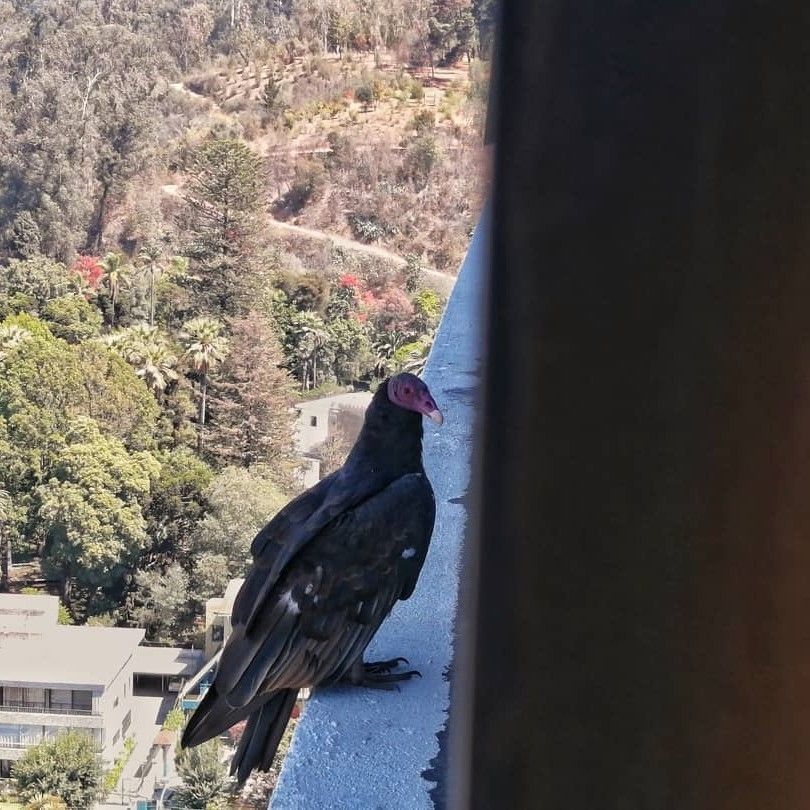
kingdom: Animalia
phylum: Chordata
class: Aves
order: Accipitriformes
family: Cathartidae
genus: Cathartes
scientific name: Cathartes aura
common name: Turkey vulture
